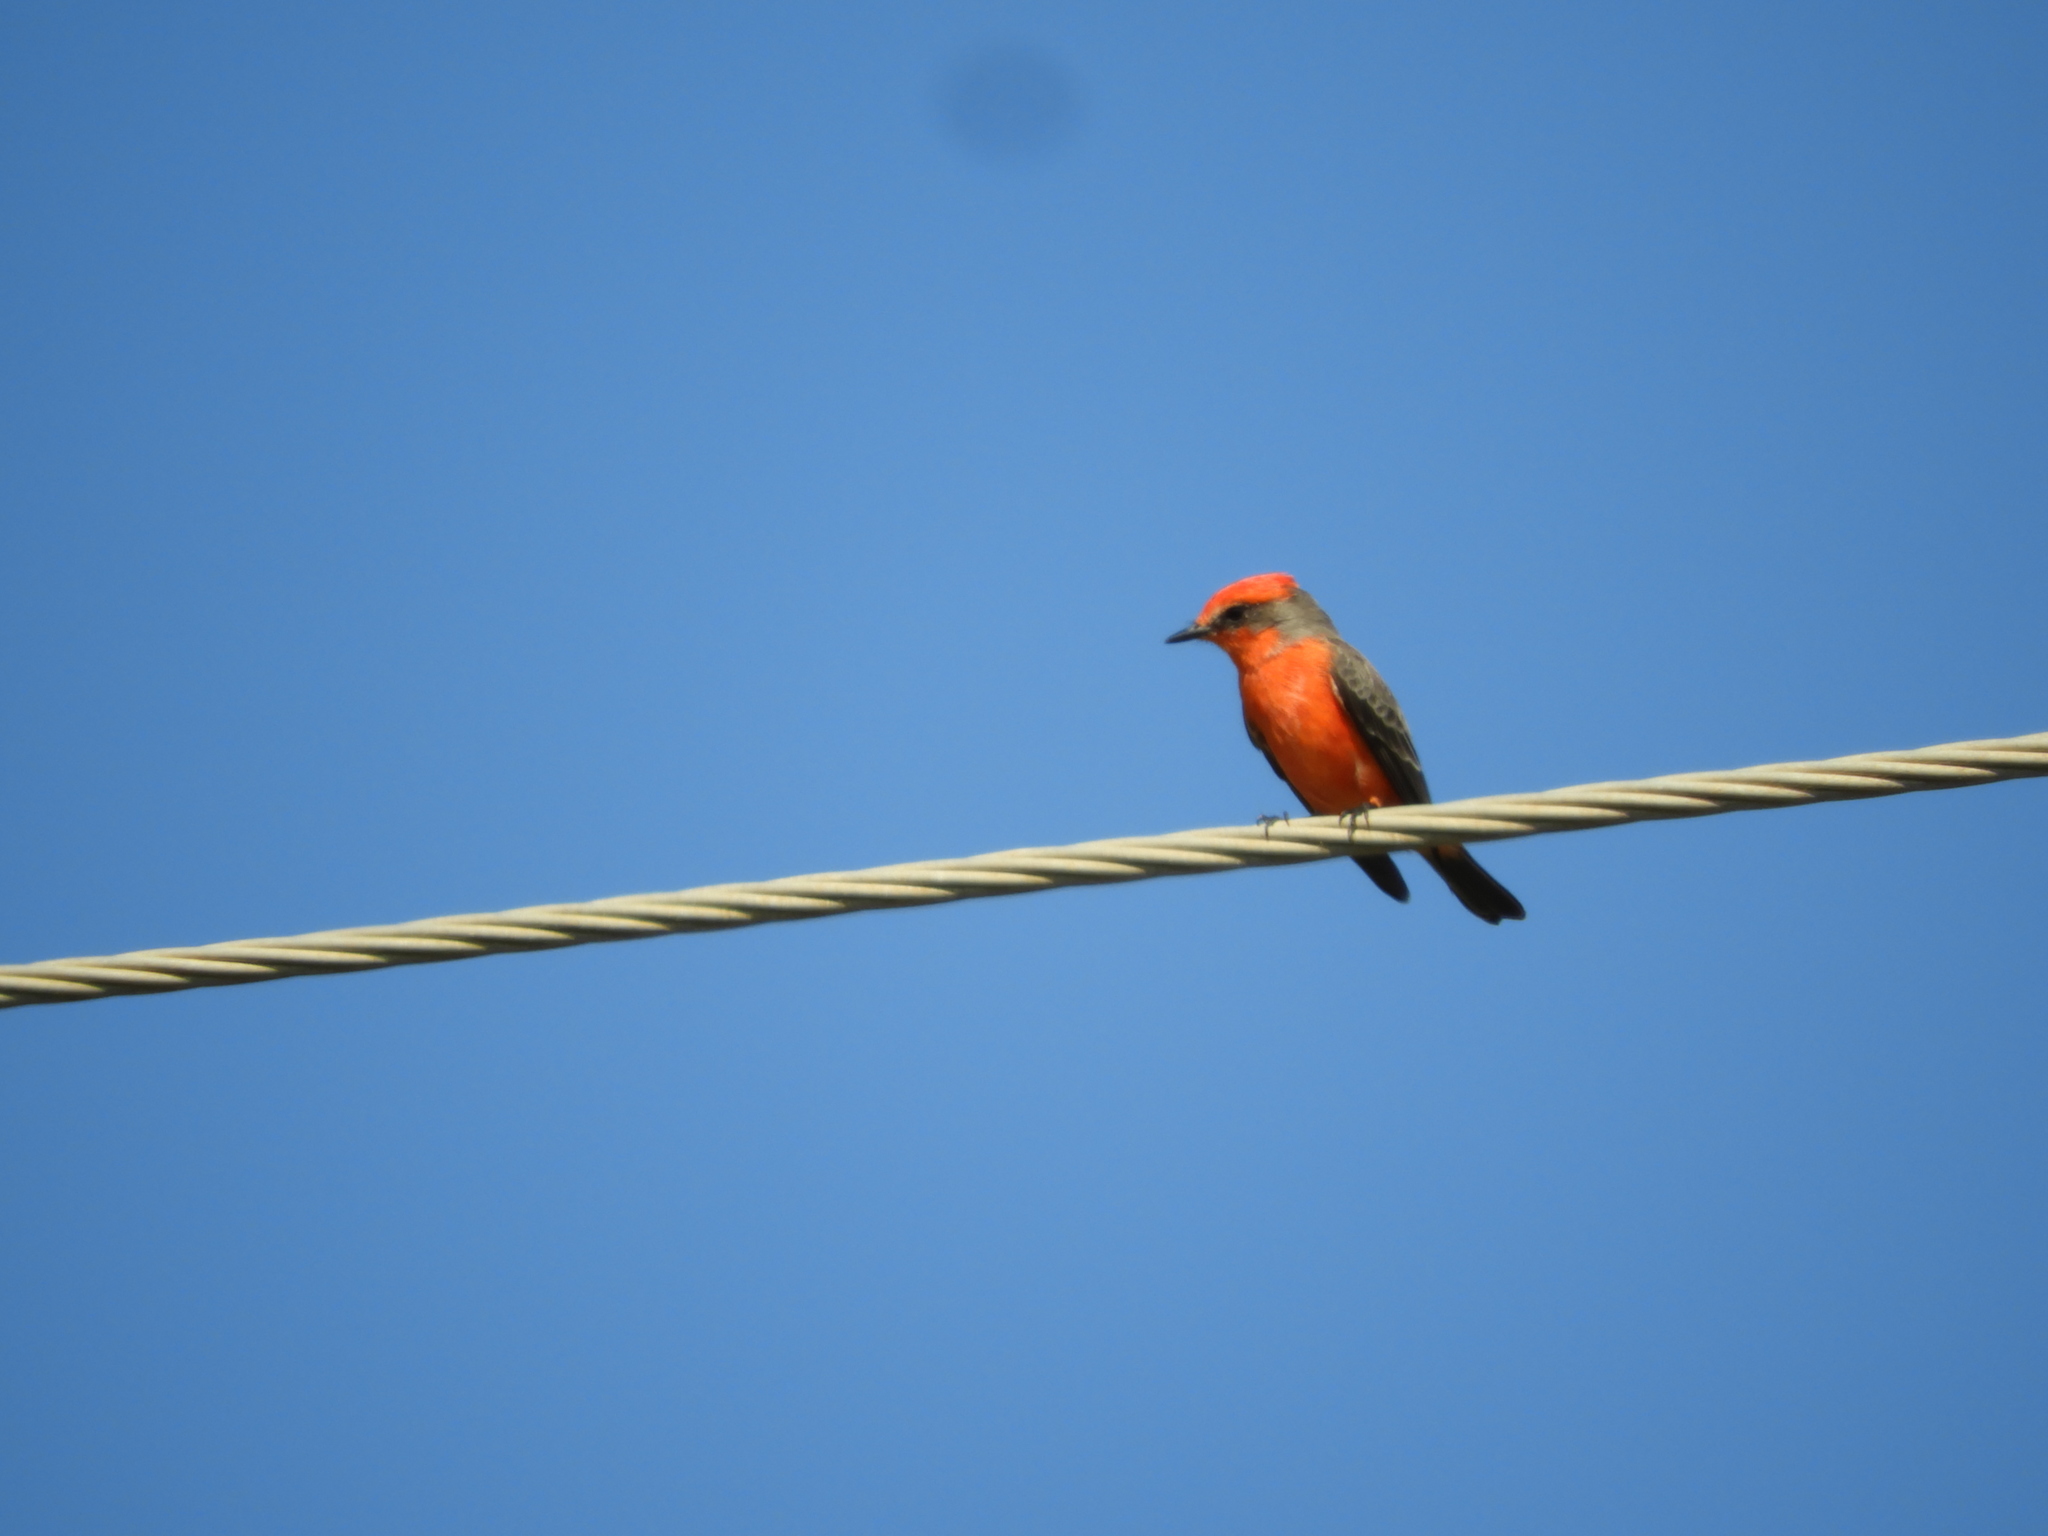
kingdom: Animalia
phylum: Chordata
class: Aves
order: Passeriformes
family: Tyrannidae
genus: Pyrocephalus
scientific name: Pyrocephalus rubinus
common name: Vermilion flycatcher
